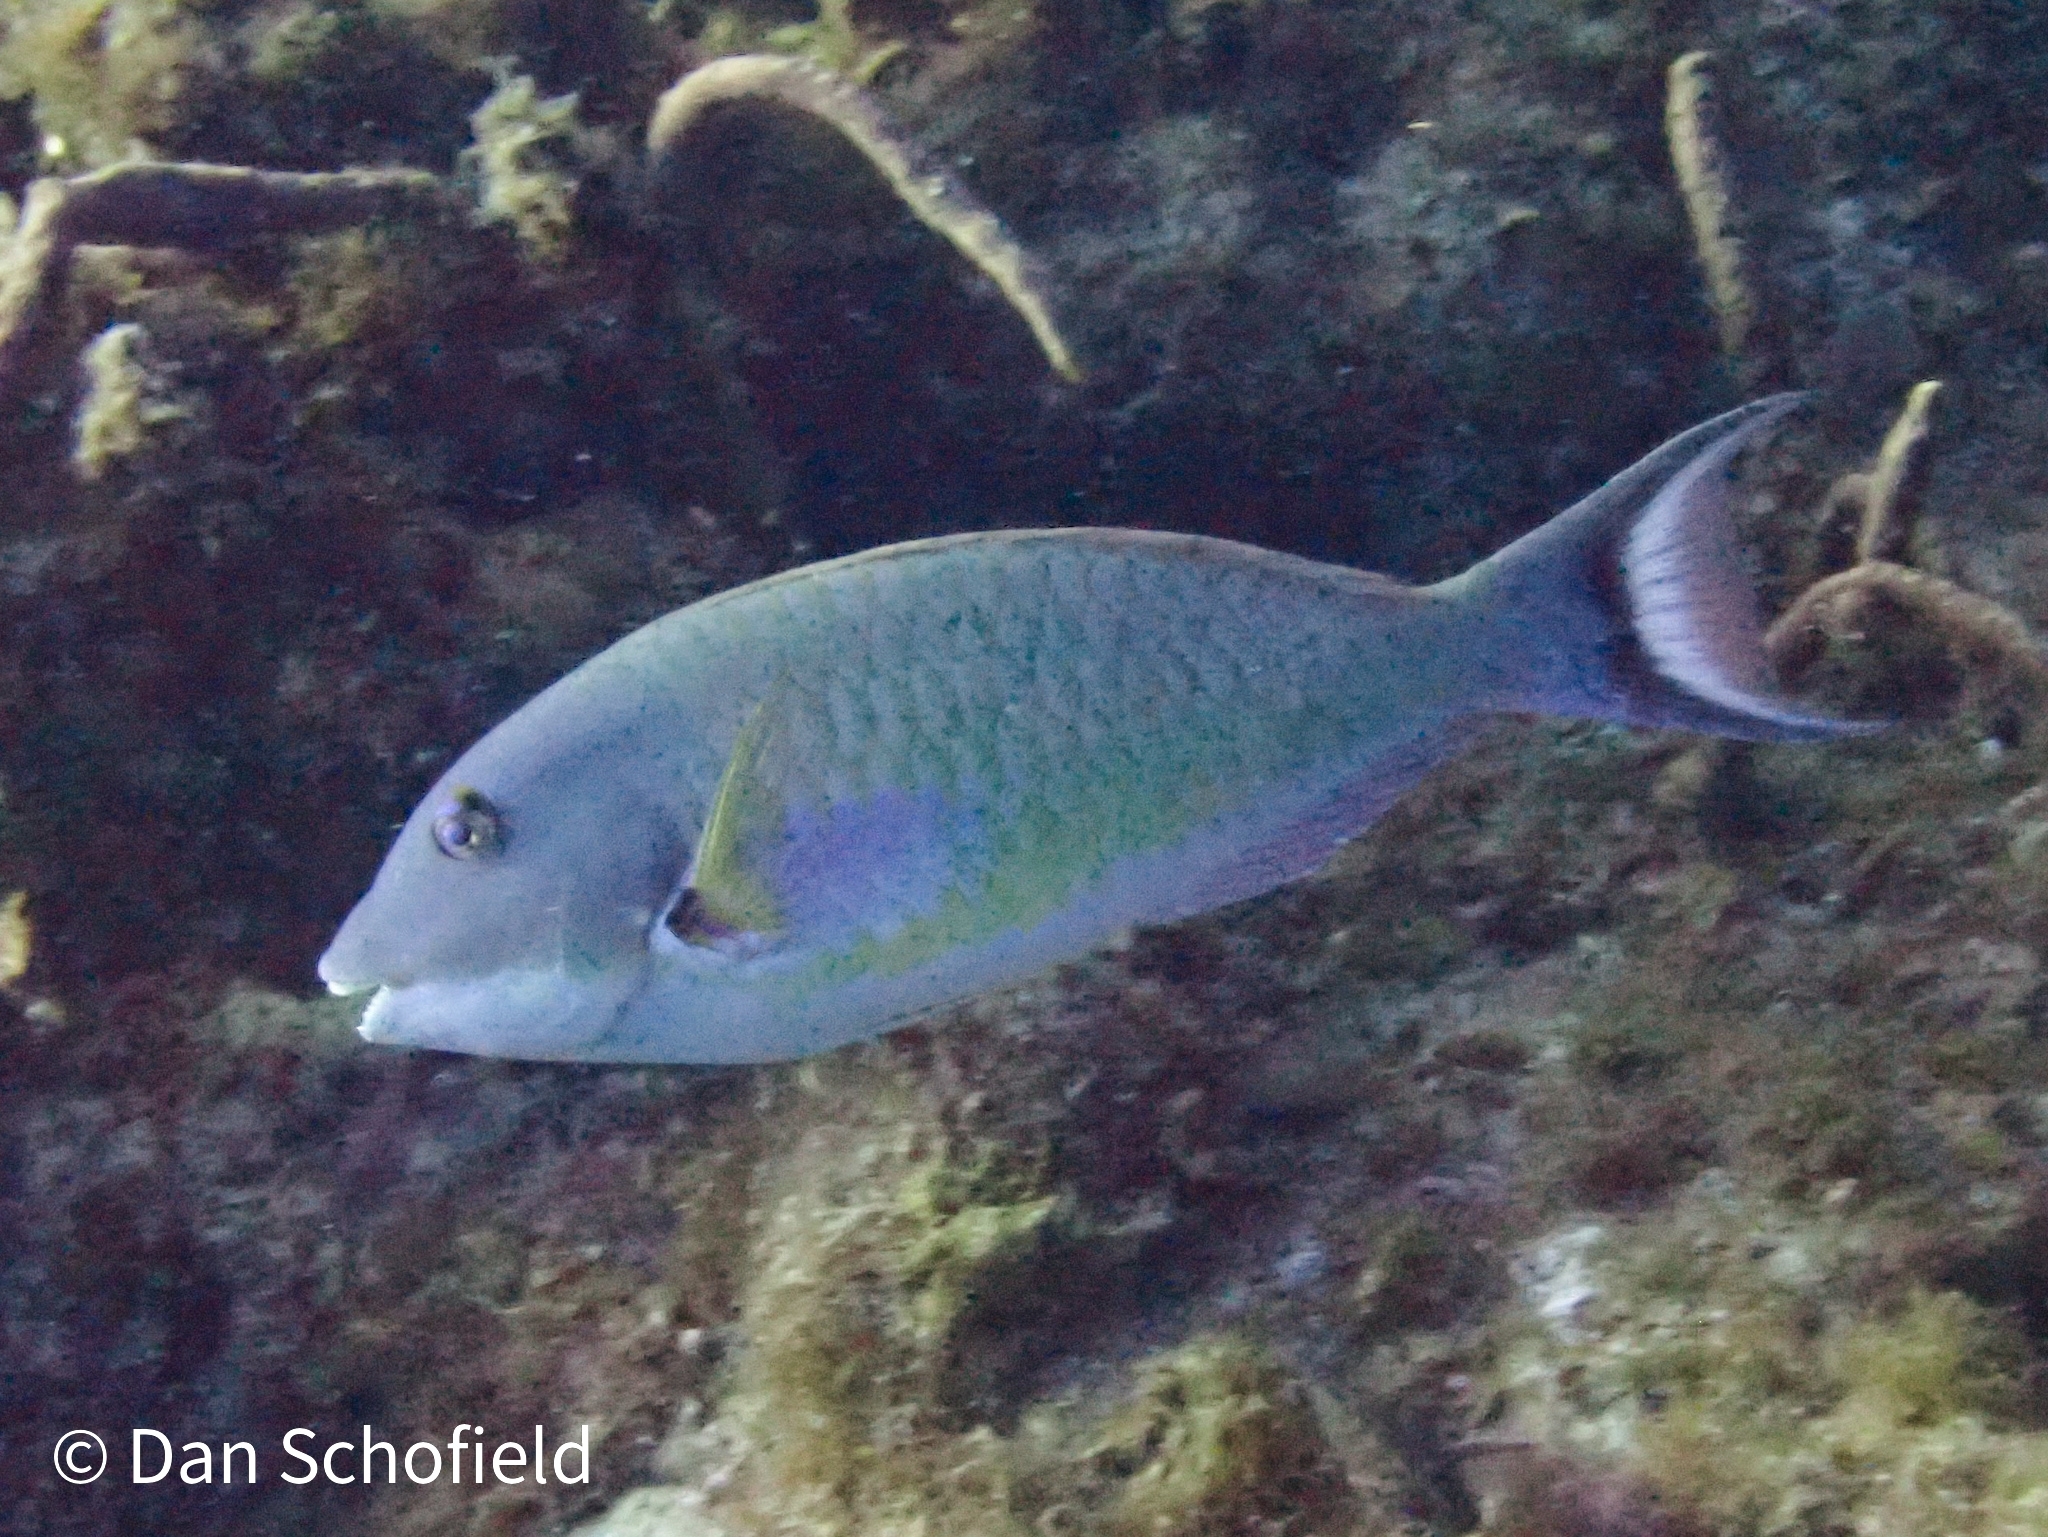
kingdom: Animalia
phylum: Chordata
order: Perciformes
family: Scaridae
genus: Sparisoma
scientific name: Sparisoma chrysopterum
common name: Redtail parrotfish
